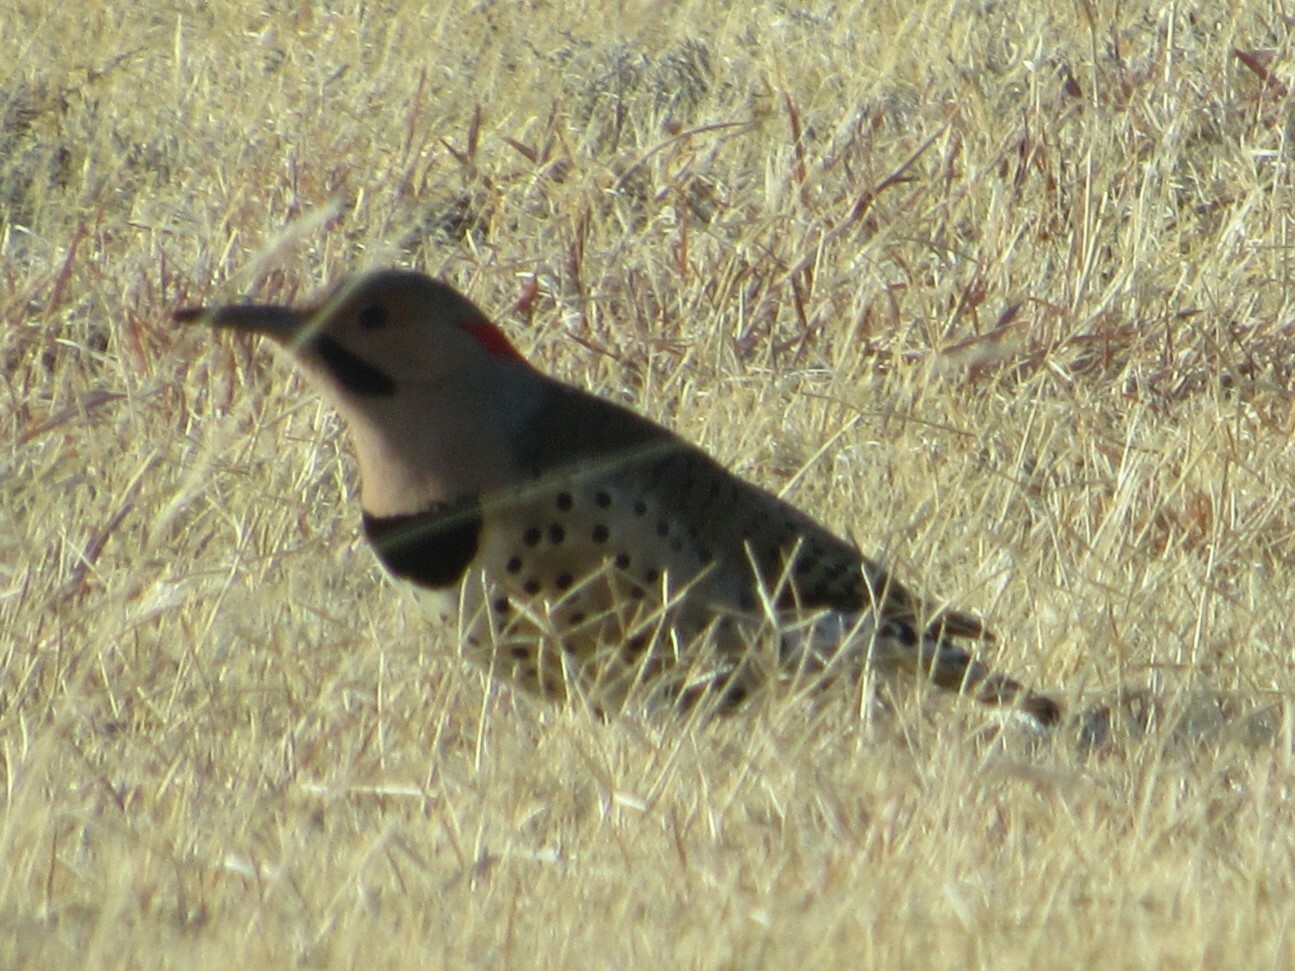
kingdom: Animalia
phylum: Chordata
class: Aves
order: Piciformes
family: Picidae
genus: Colaptes
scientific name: Colaptes auratus
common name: Northern flicker
